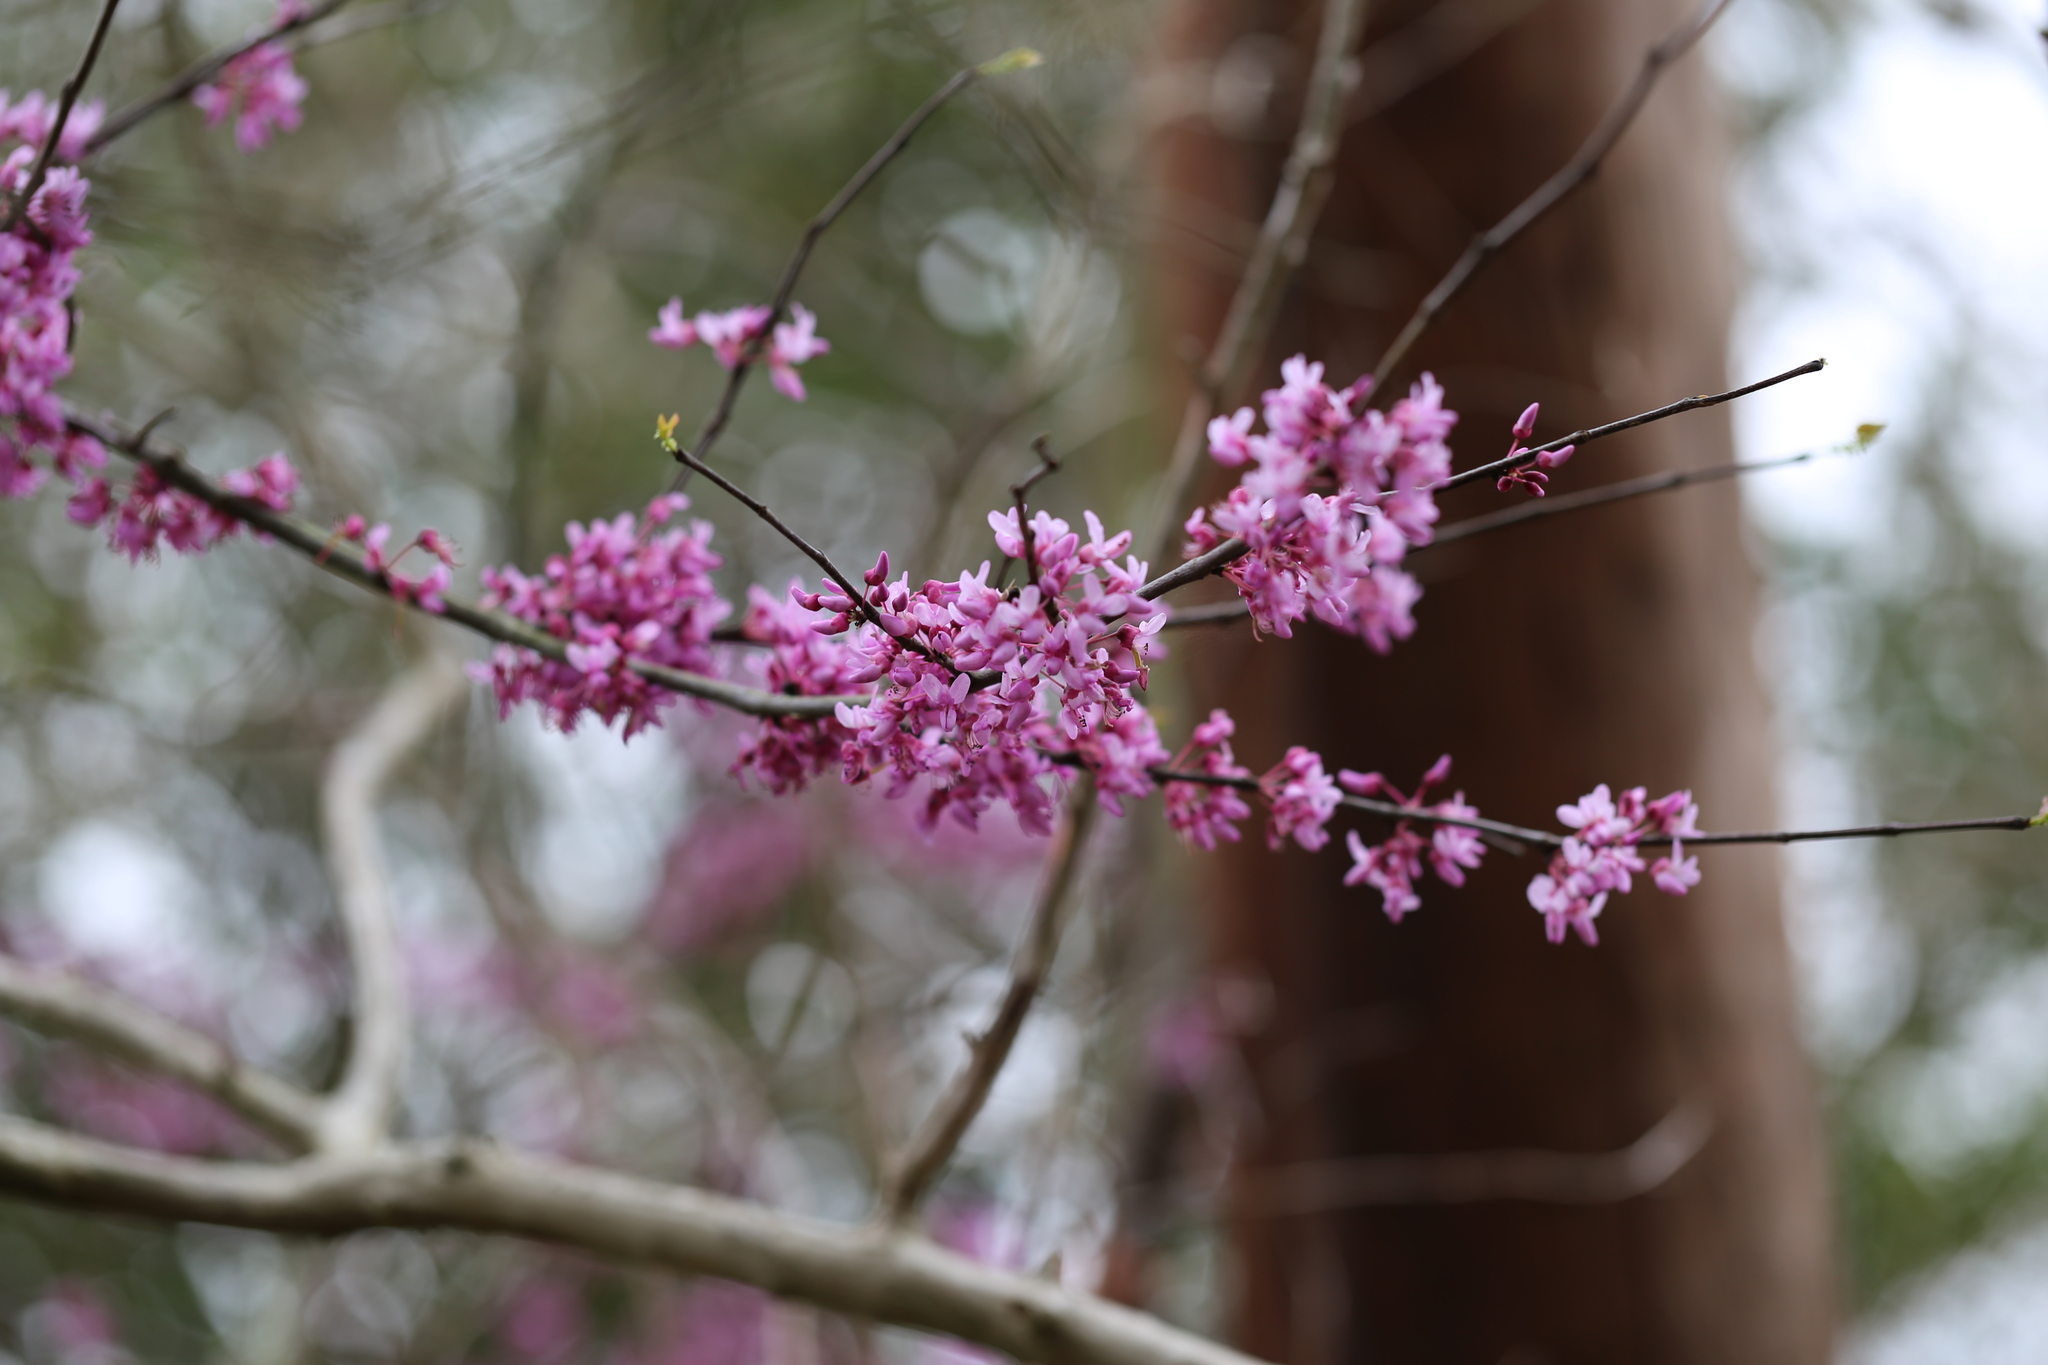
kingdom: Plantae
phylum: Tracheophyta
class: Magnoliopsida
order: Fabales
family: Fabaceae
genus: Cercis
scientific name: Cercis canadensis
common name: Eastern redbud
